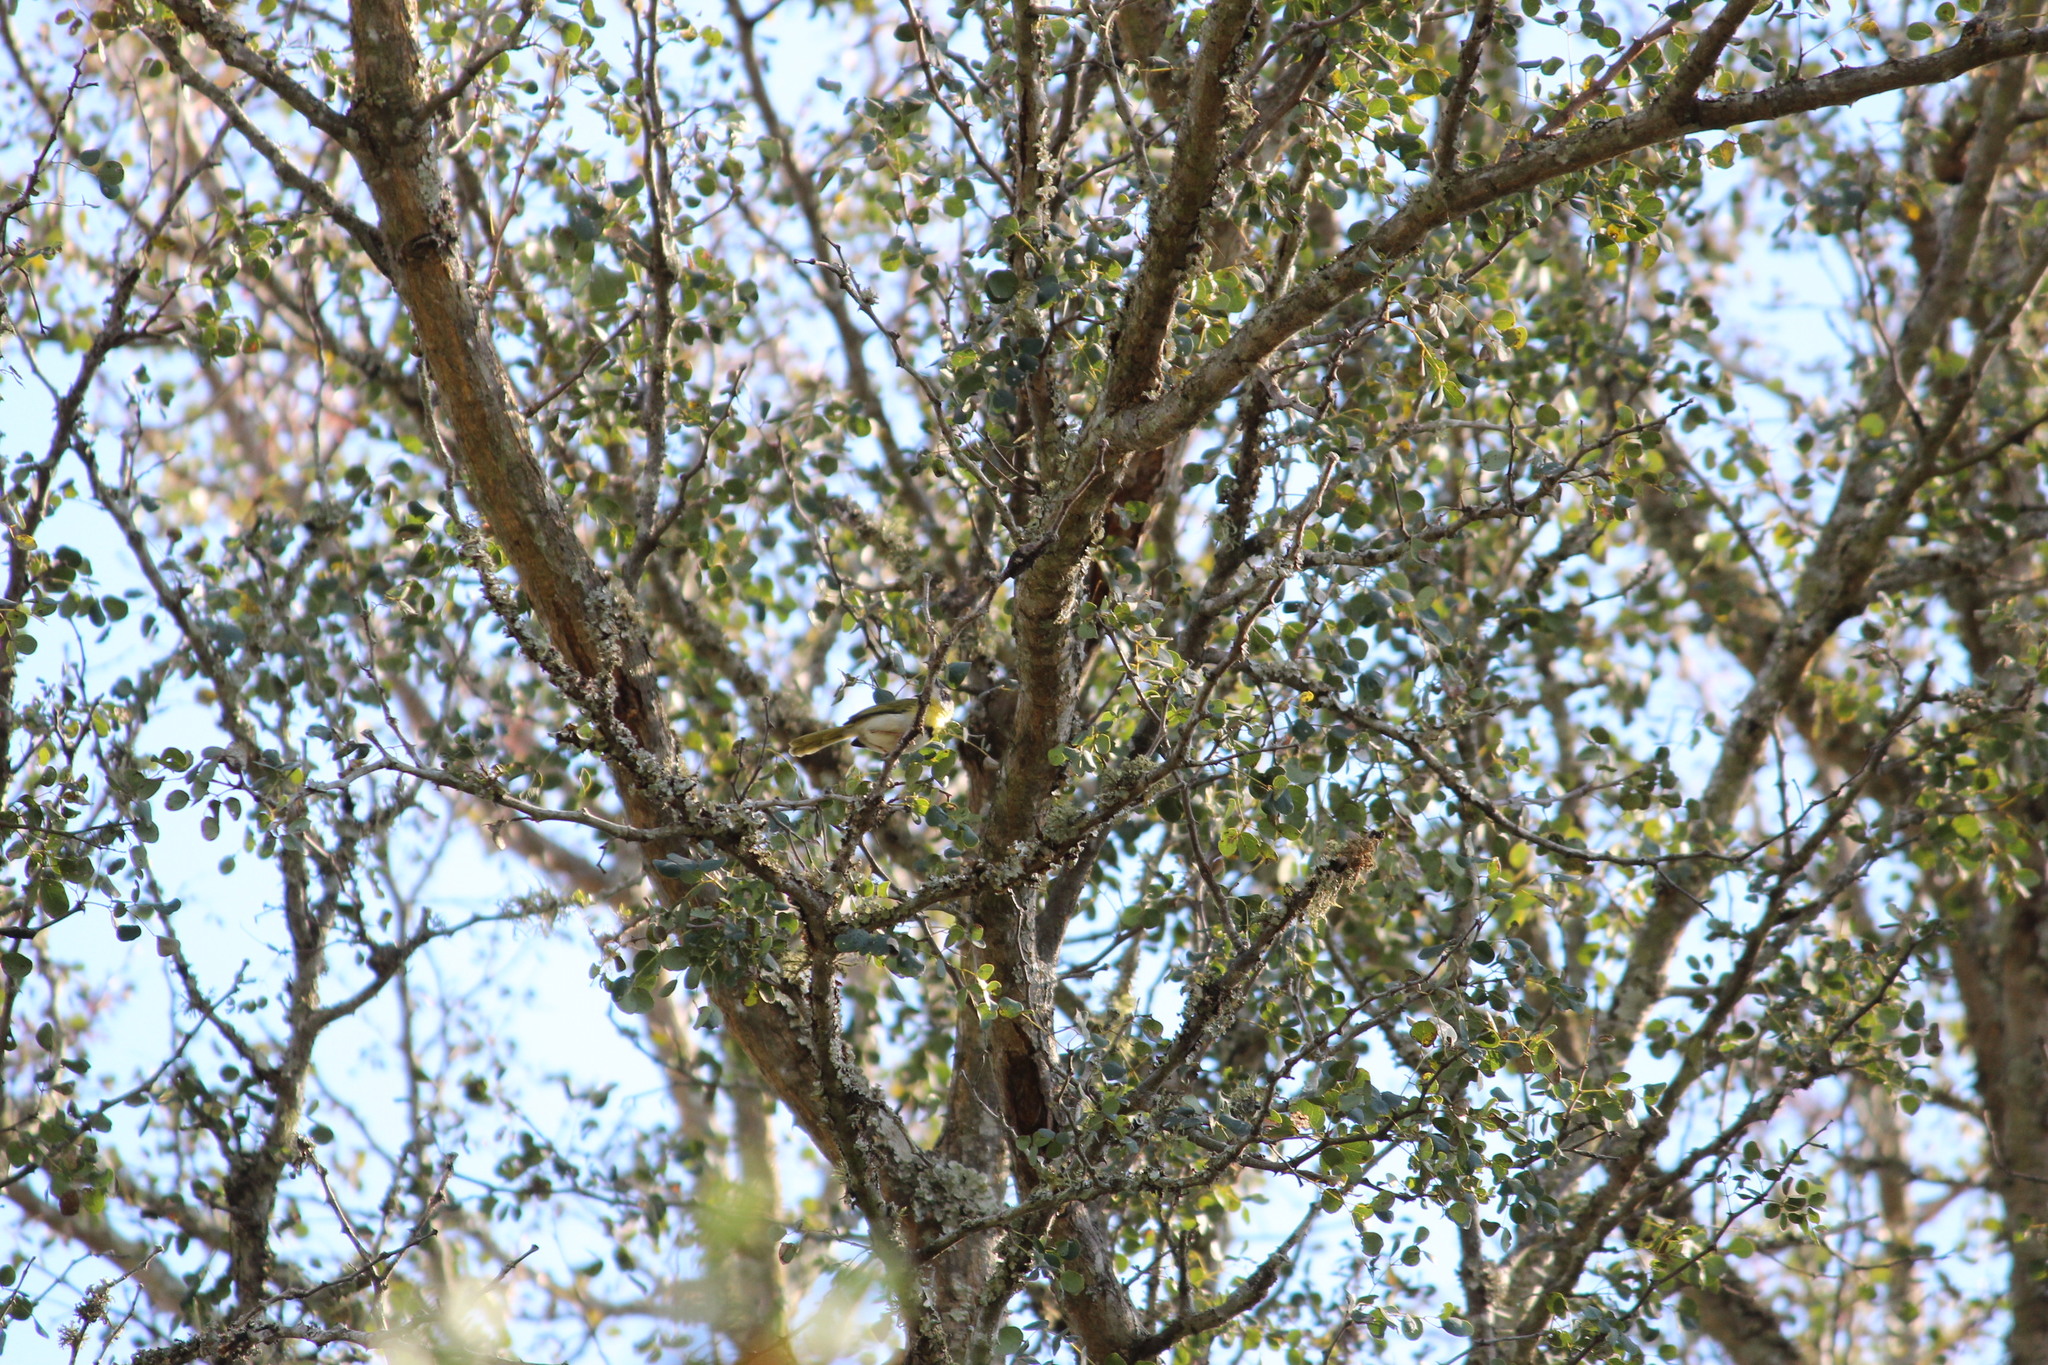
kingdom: Animalia
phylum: Chordata
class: Aves
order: Passeriformes
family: Cisticolidae
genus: Apalis
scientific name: Apalis flavida
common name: Yellow-breasted apalis
